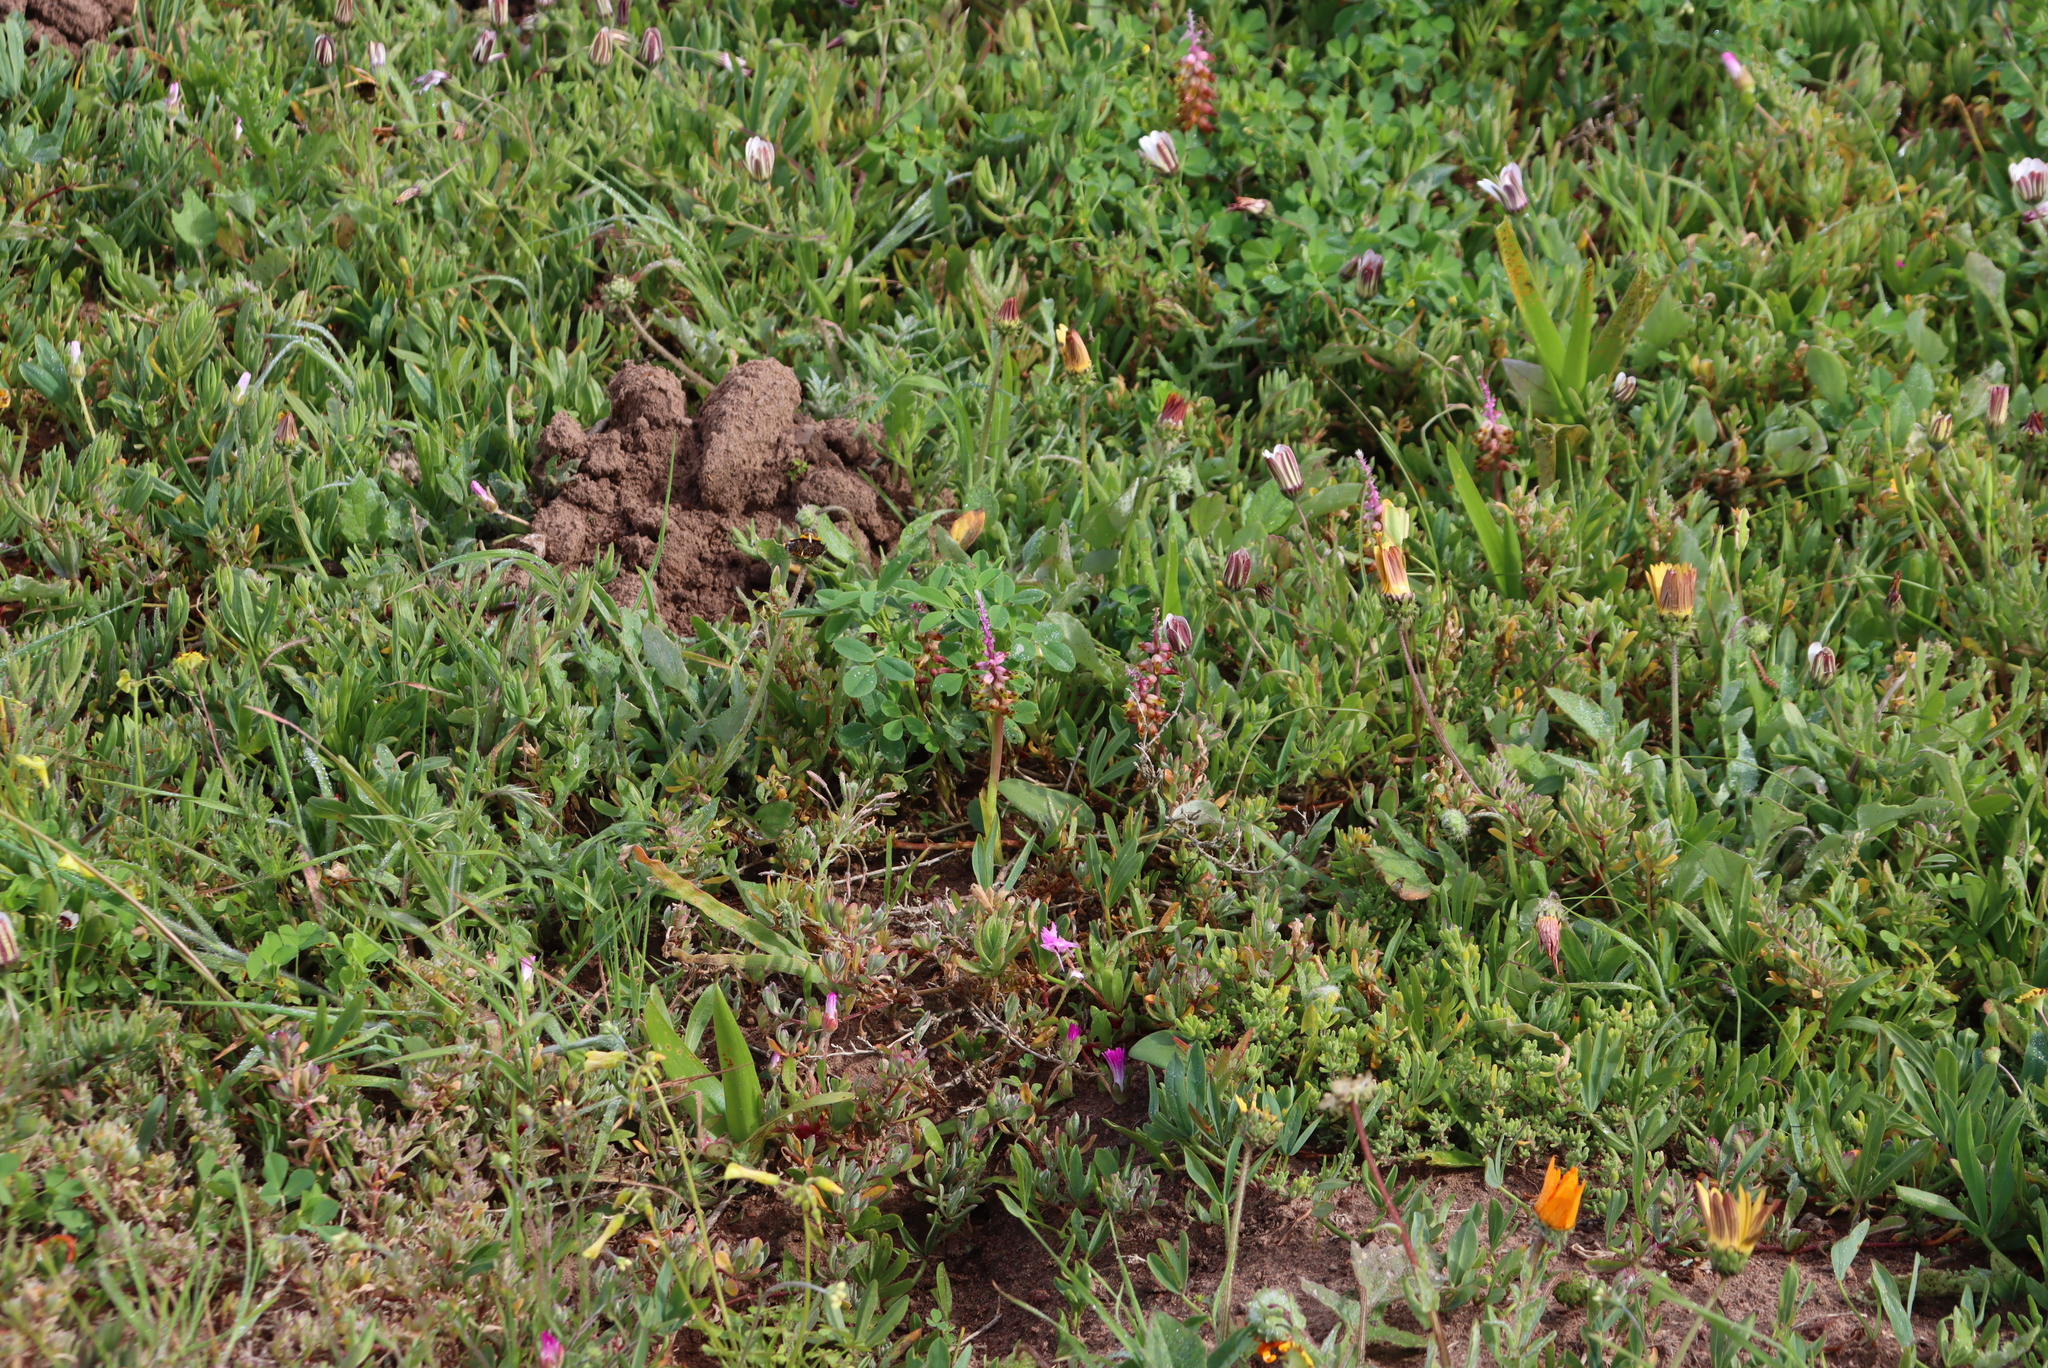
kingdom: Plantae
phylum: Tracheophyta
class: Liliopsida
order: Asparagales
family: Asparagaceae
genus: Lachenalia
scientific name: Lachenalia mutabilis
